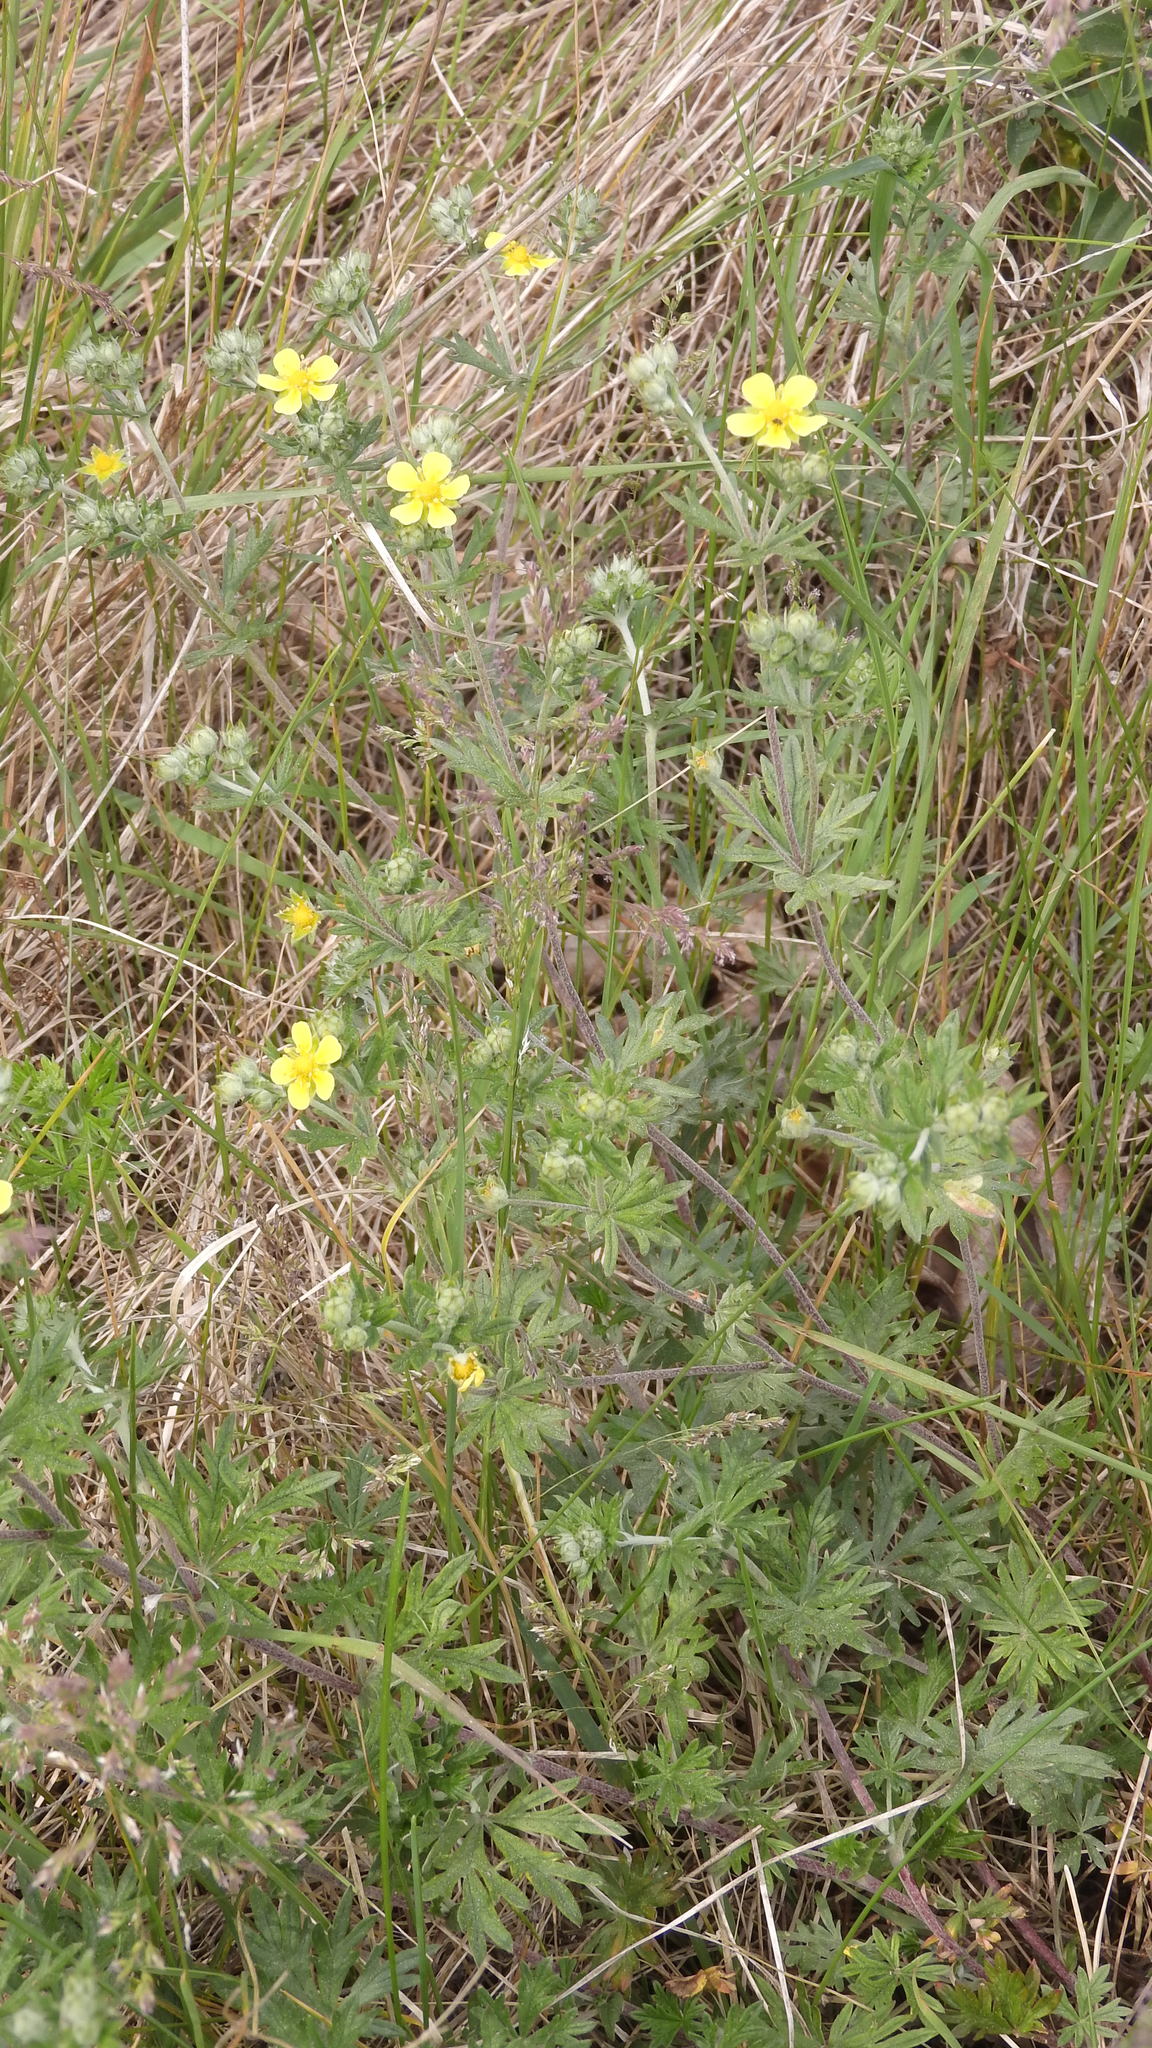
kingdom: Plantae
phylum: Tracheophyta
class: Magnoliopsida
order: Rosales
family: Rosaceae
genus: Potentilla
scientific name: Potentilla argentea
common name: Hoary cinquefoil
